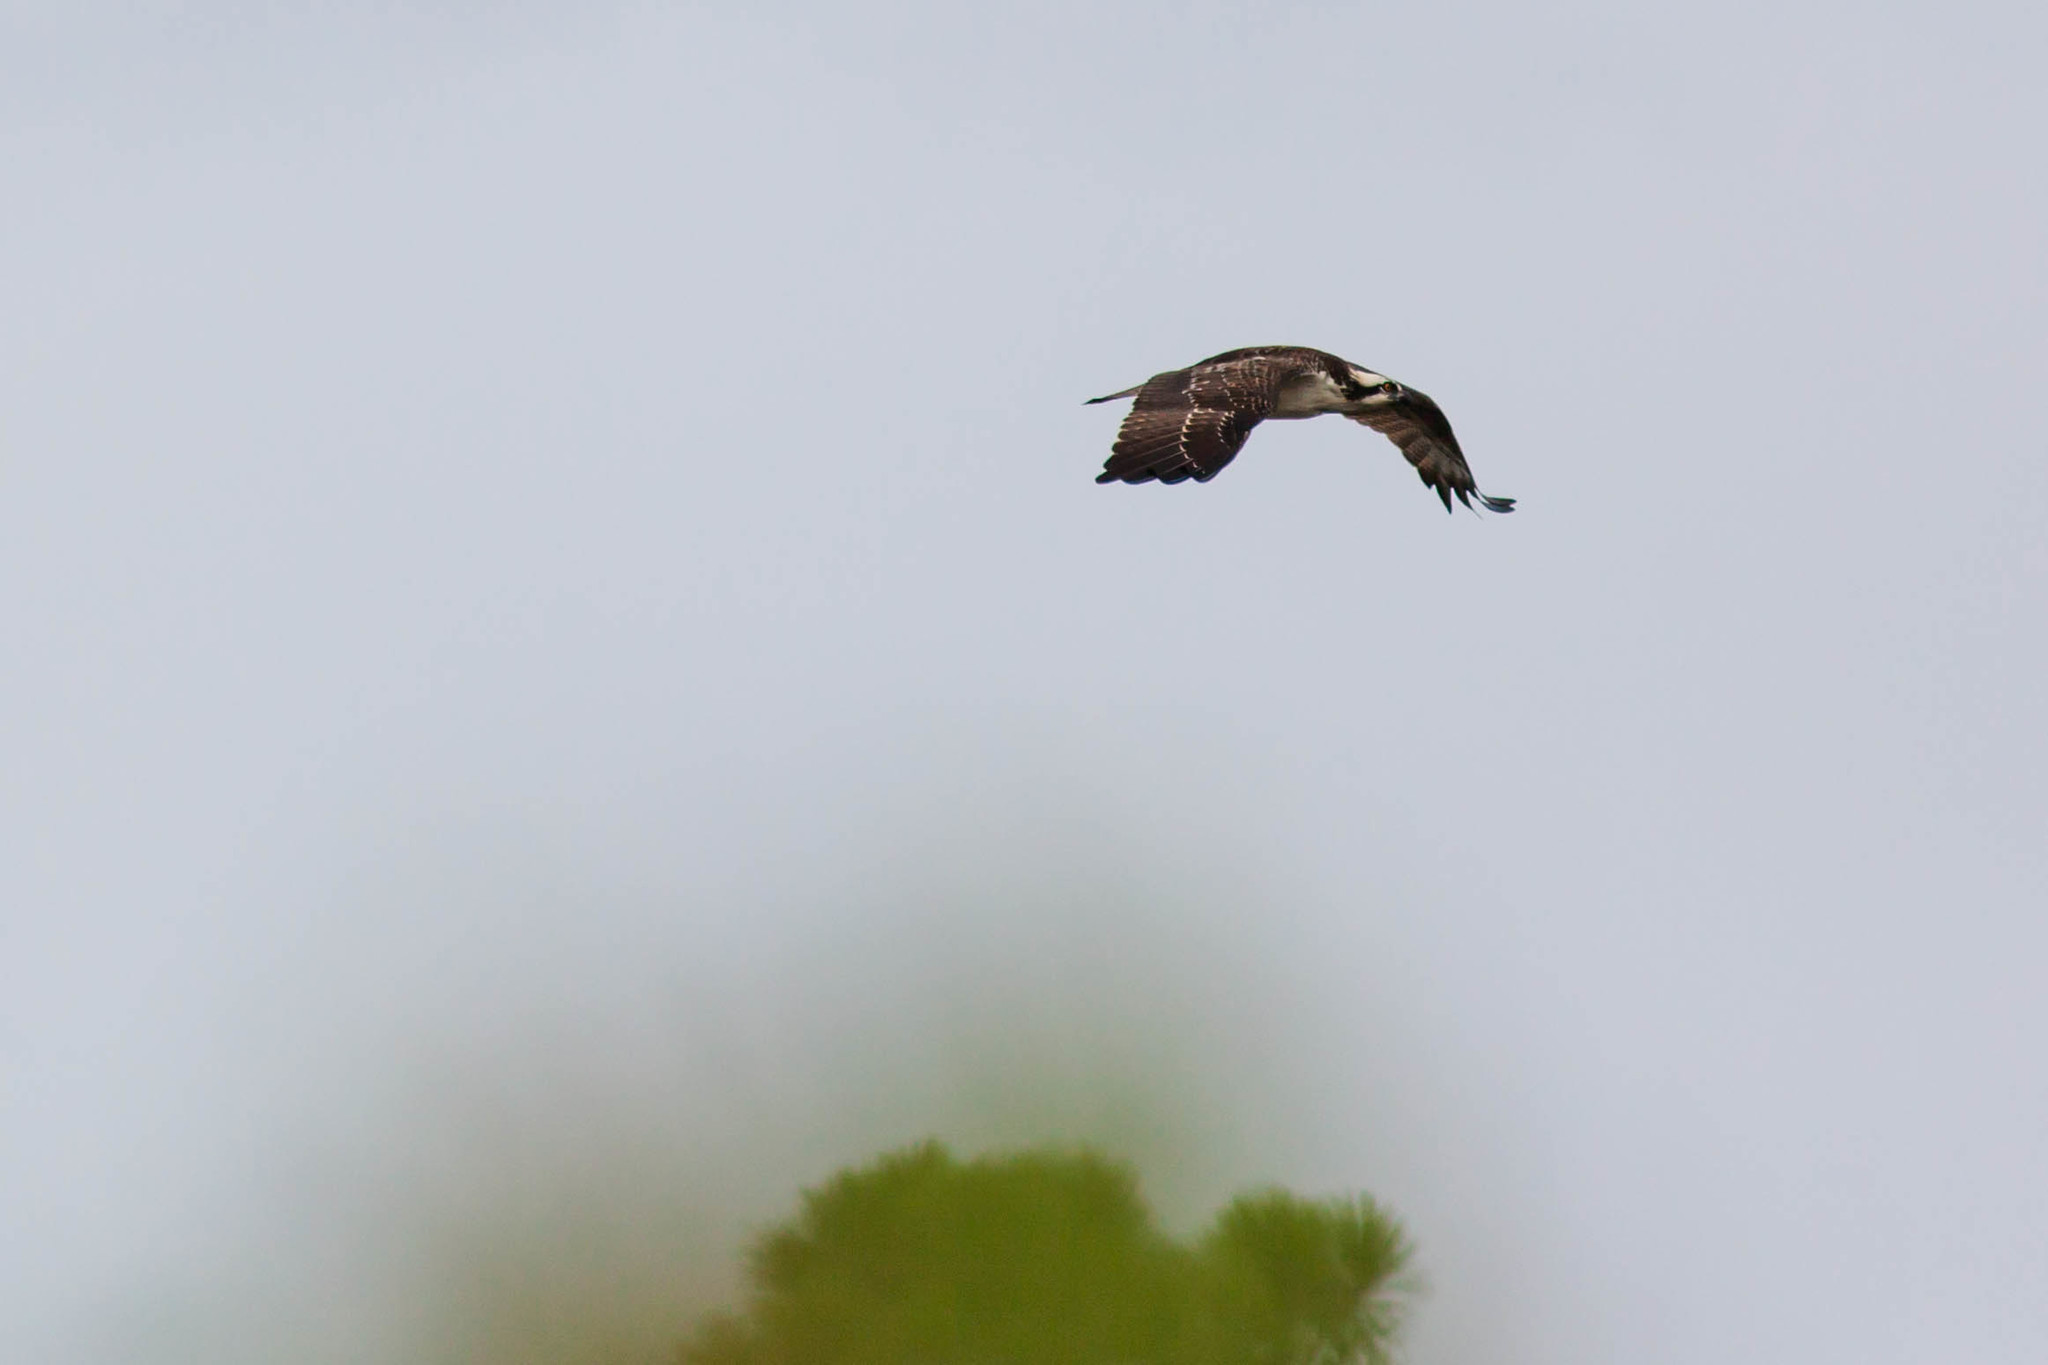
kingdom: Animalia
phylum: Chordata
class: Aves
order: Accipitriformes
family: Pandionidae
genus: Pandion
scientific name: Pandion haliaetus
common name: Osprey
